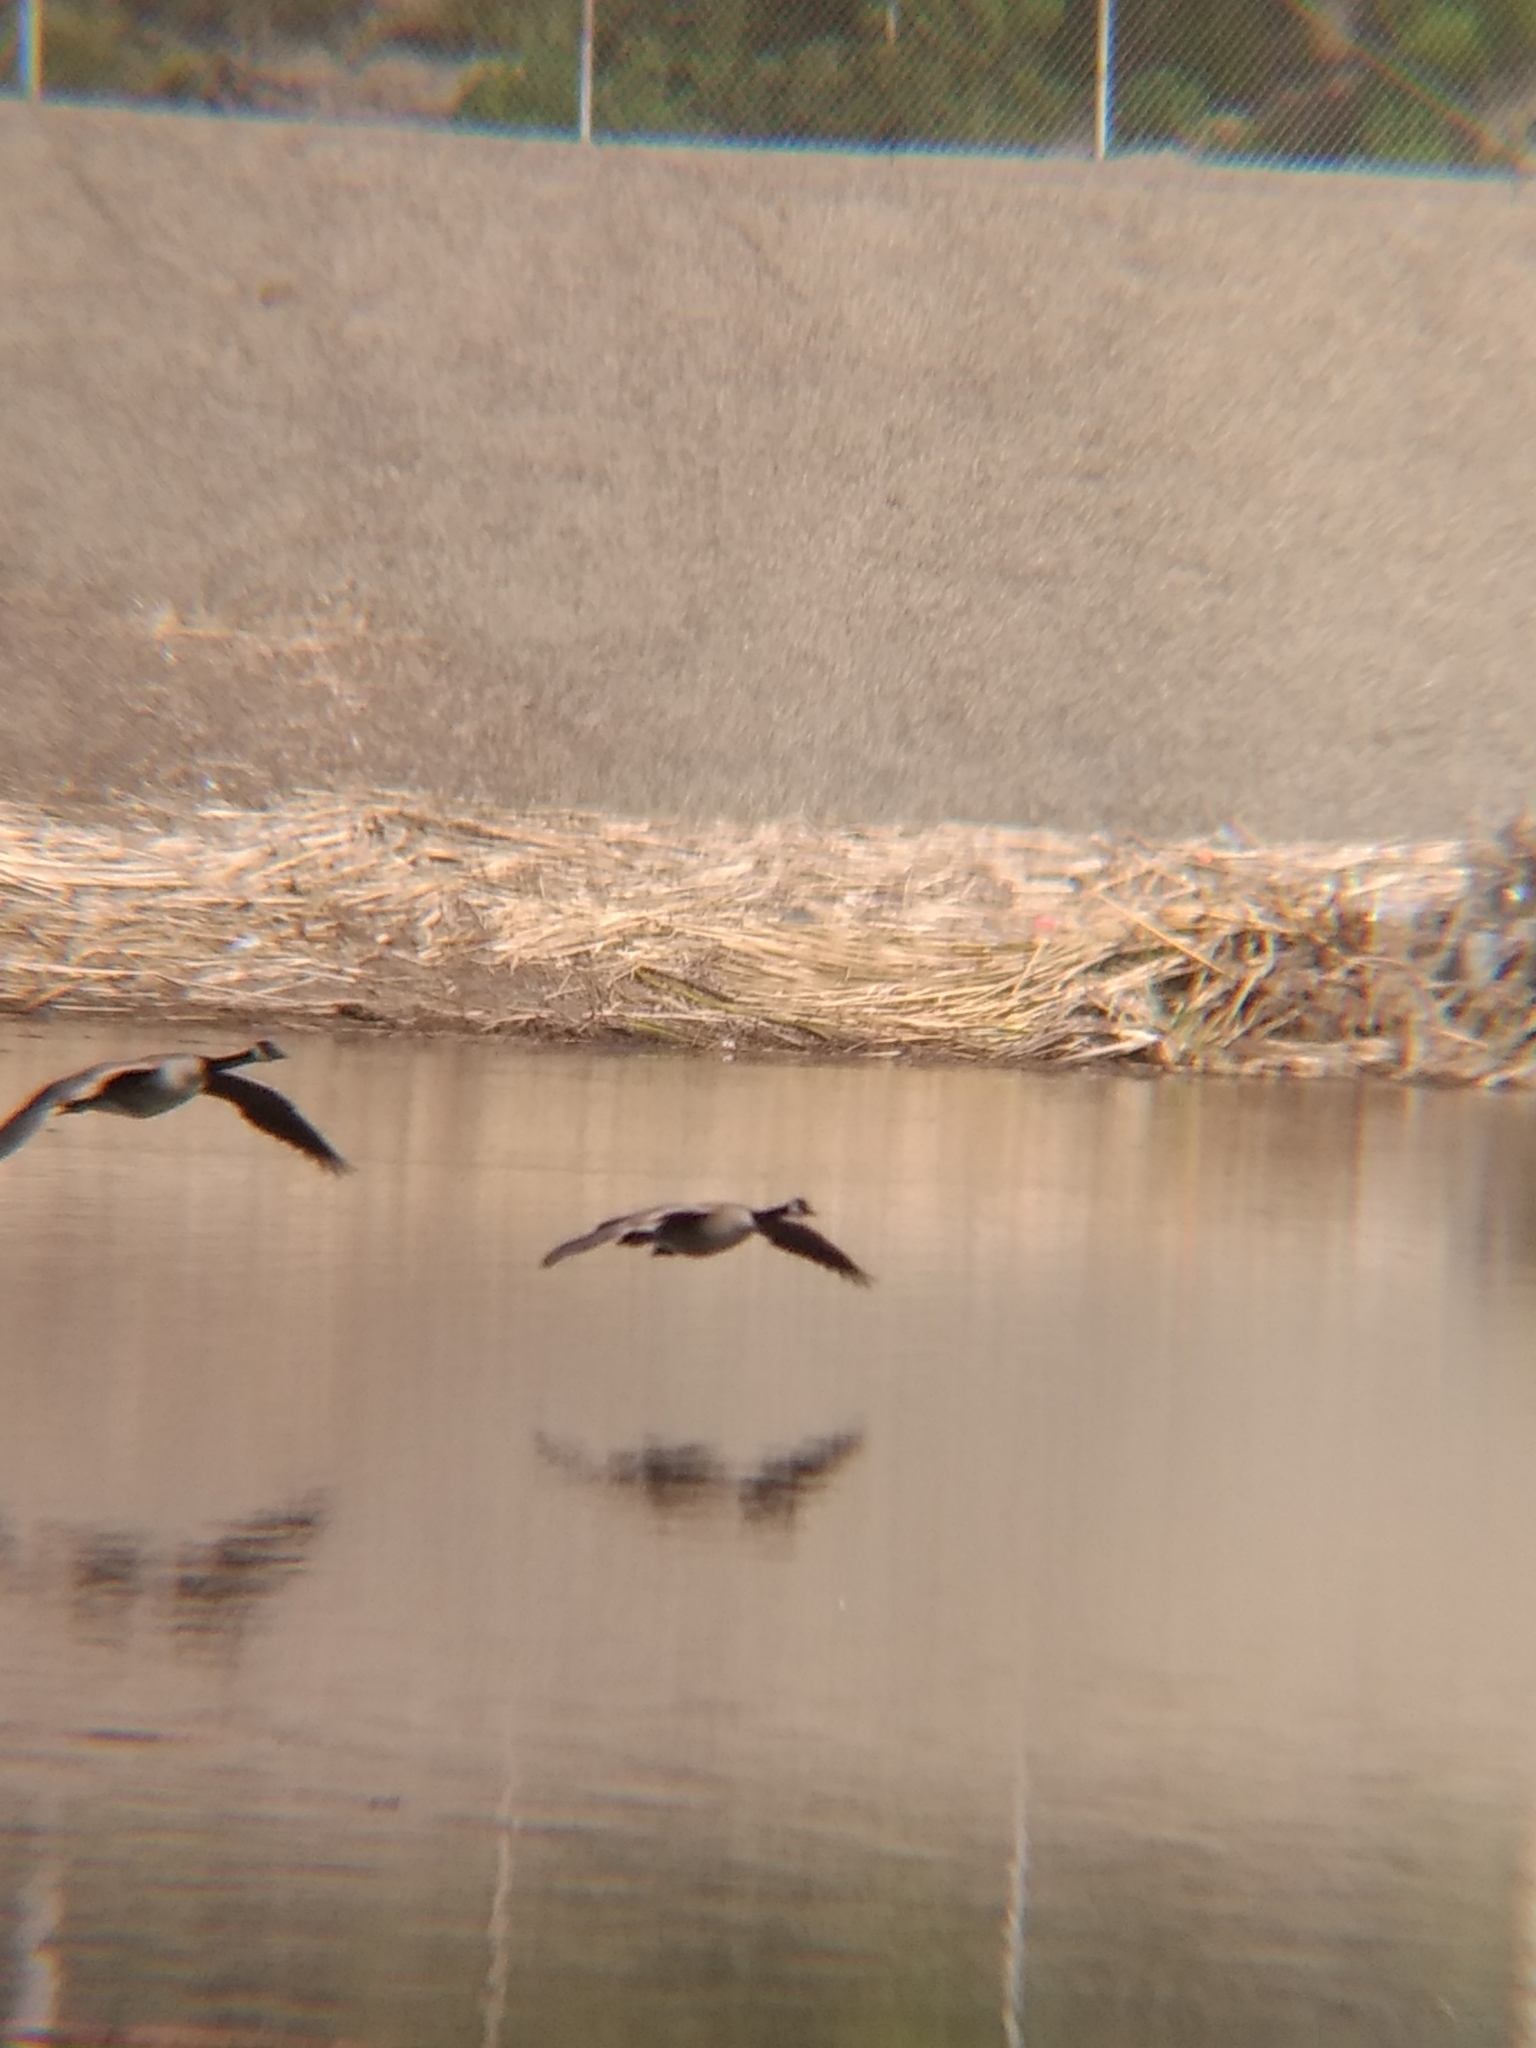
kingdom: Animalia
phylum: Chordata
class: Aves
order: Anseriformes
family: Anatidae
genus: Branta
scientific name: Branta canadensis
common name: Canada goose
